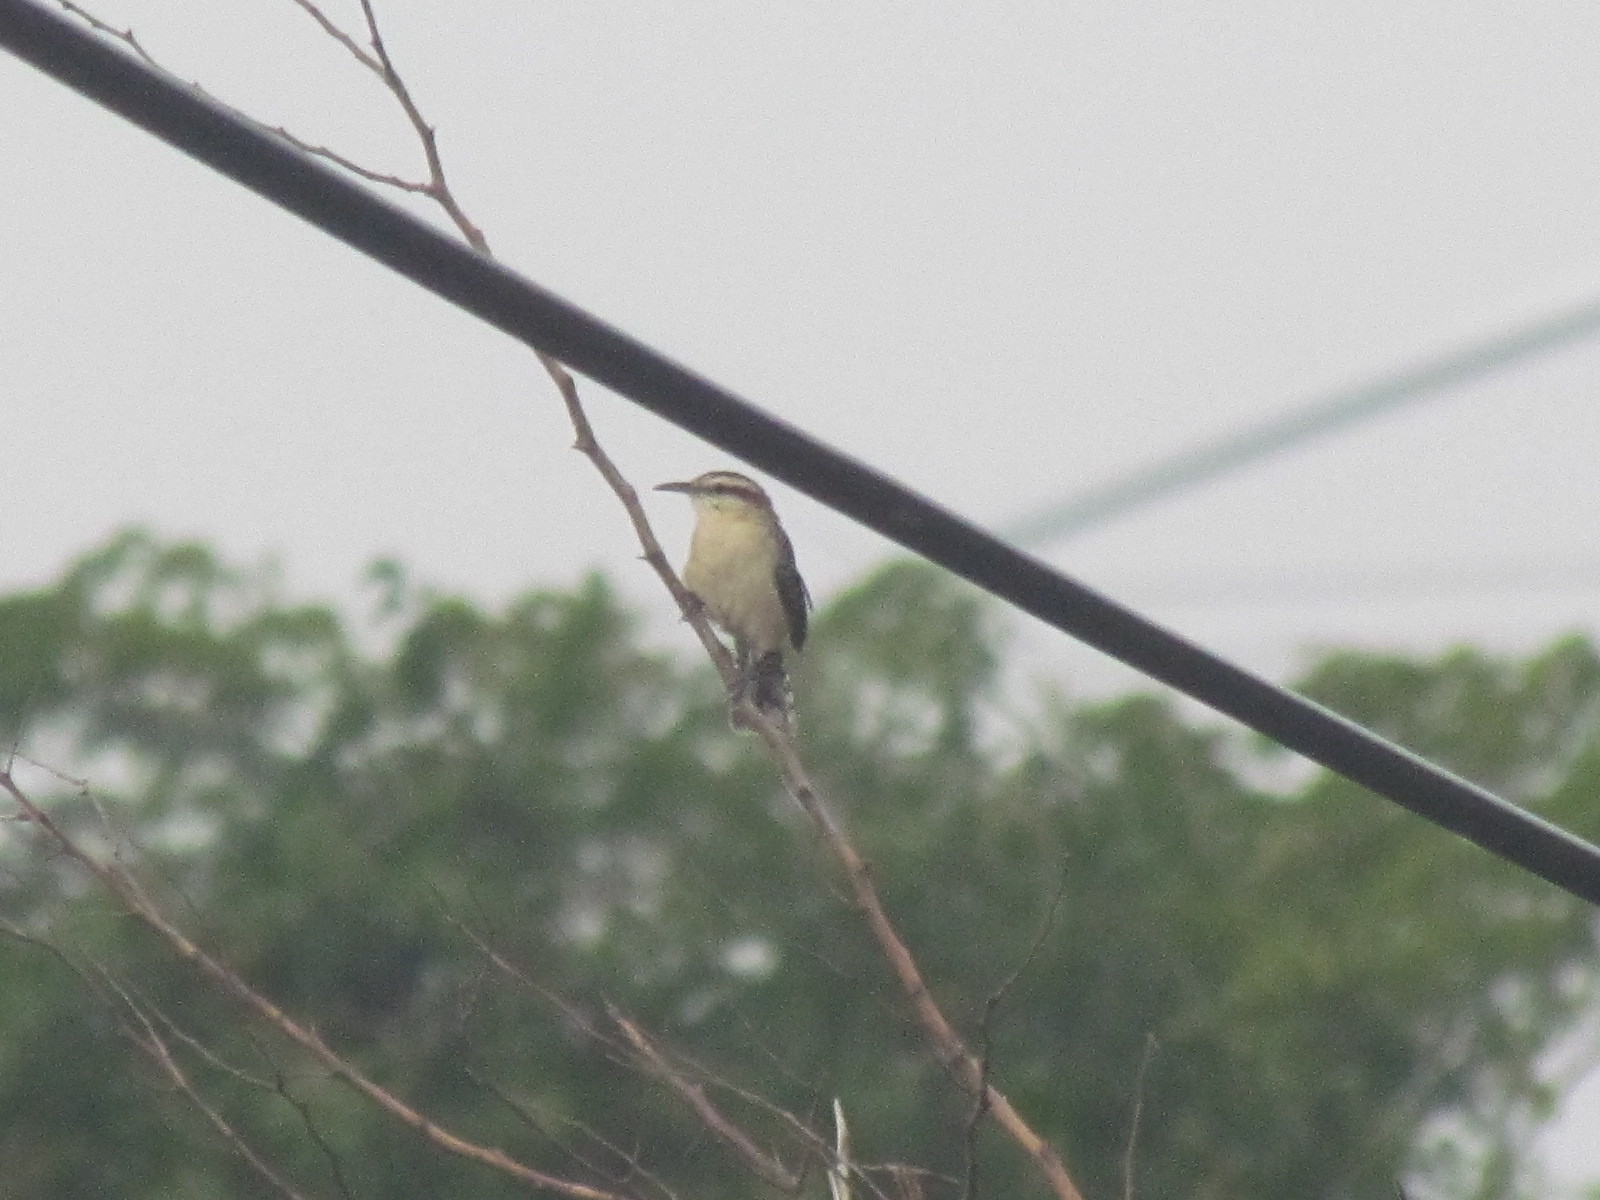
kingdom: Animalia
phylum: Chordata
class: Aves
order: Passeriformes
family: Troglodytidae
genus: Campylorhynchus
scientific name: Campylorhynchus rufinucha
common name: Rufous-naped wren
